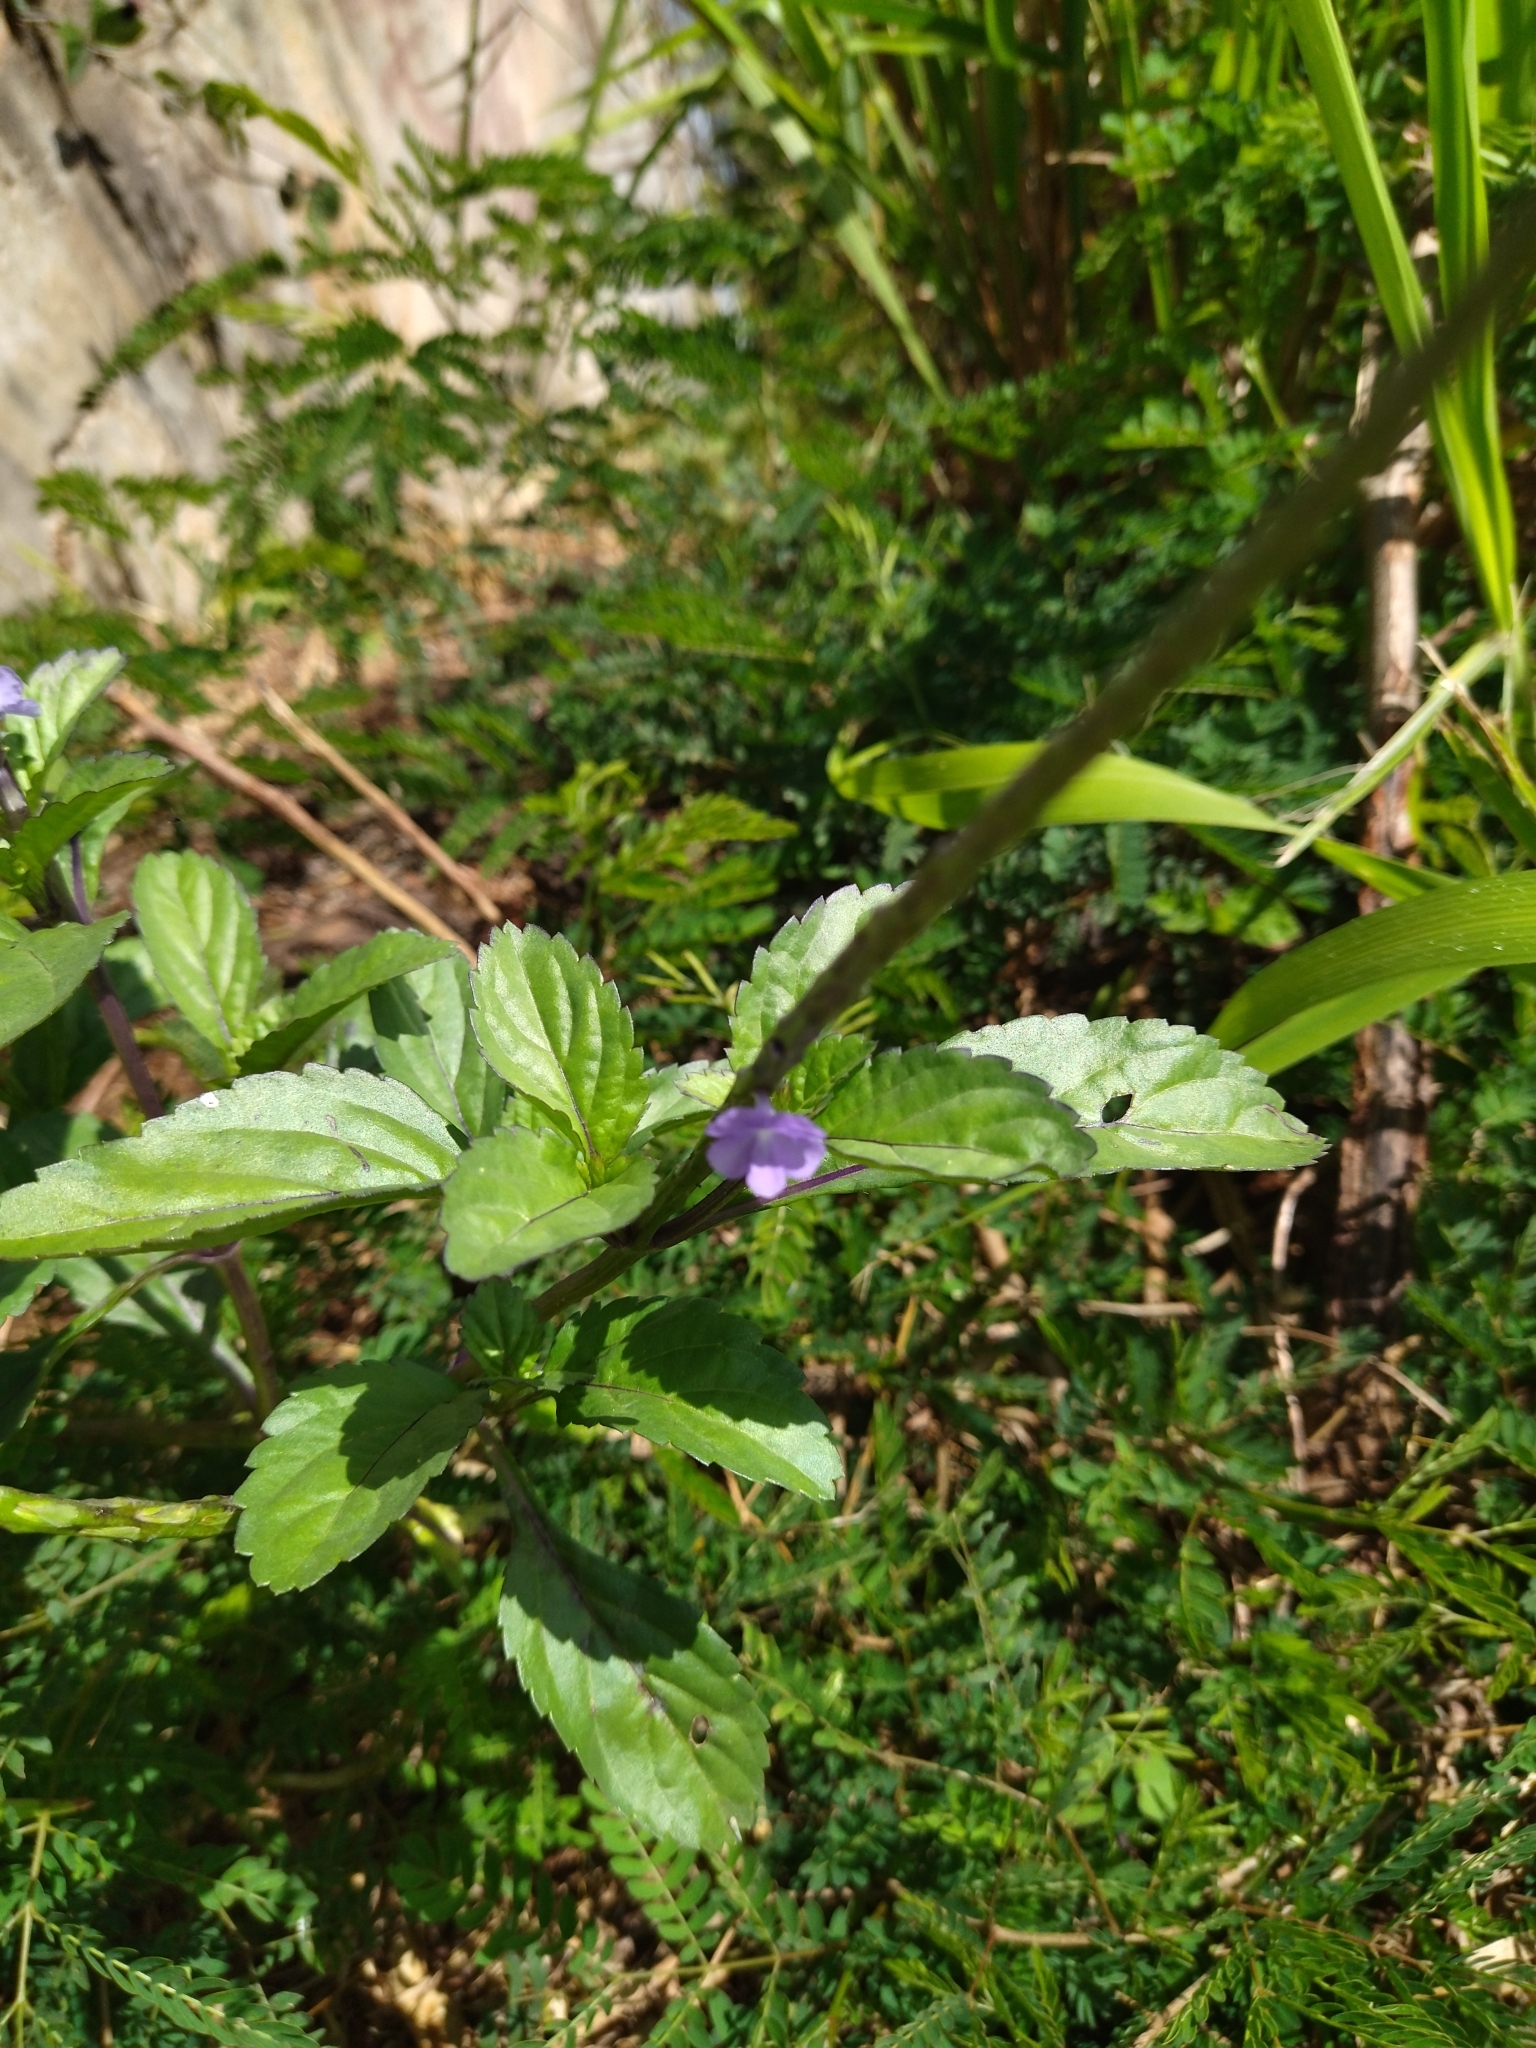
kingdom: Plantae
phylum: Tracheophyta
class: Magnoliopsida
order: Lamiales
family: Verbenaceae
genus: Stachytarpheta
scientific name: Stachytarpheta jamaicensis
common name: Light-blue snakeweed
